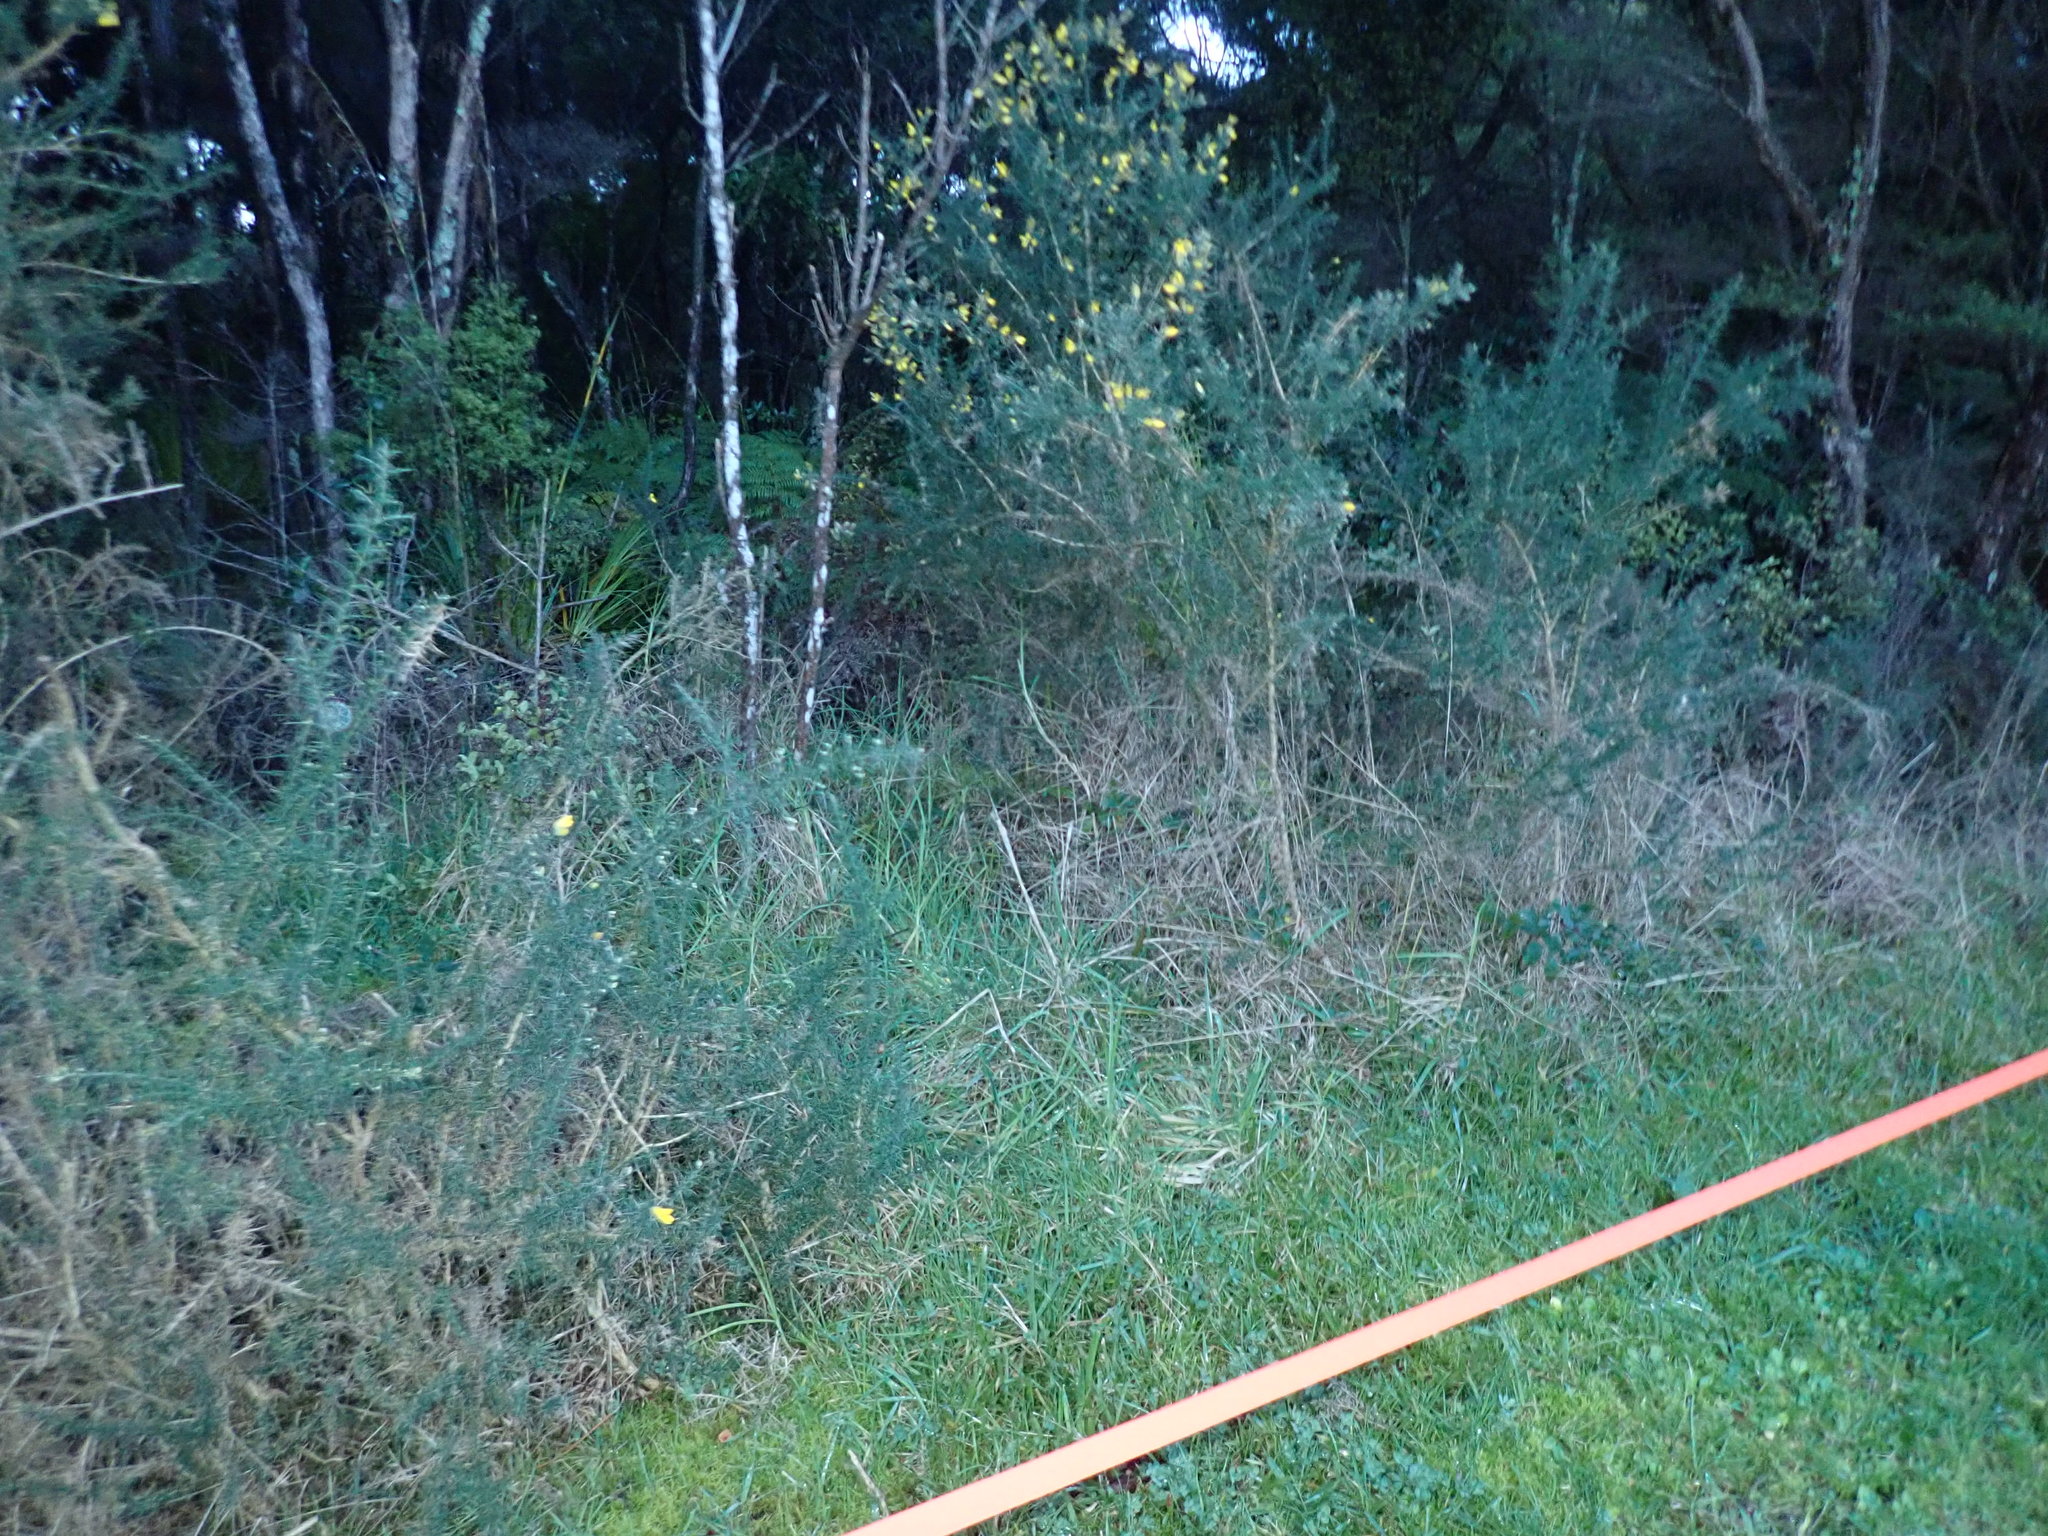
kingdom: Plantae
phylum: Tracheophyta
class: Magnoliopsida
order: Fabales
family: Fabaceae
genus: Ulex
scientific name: Ulex europaeus
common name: Common gorse
